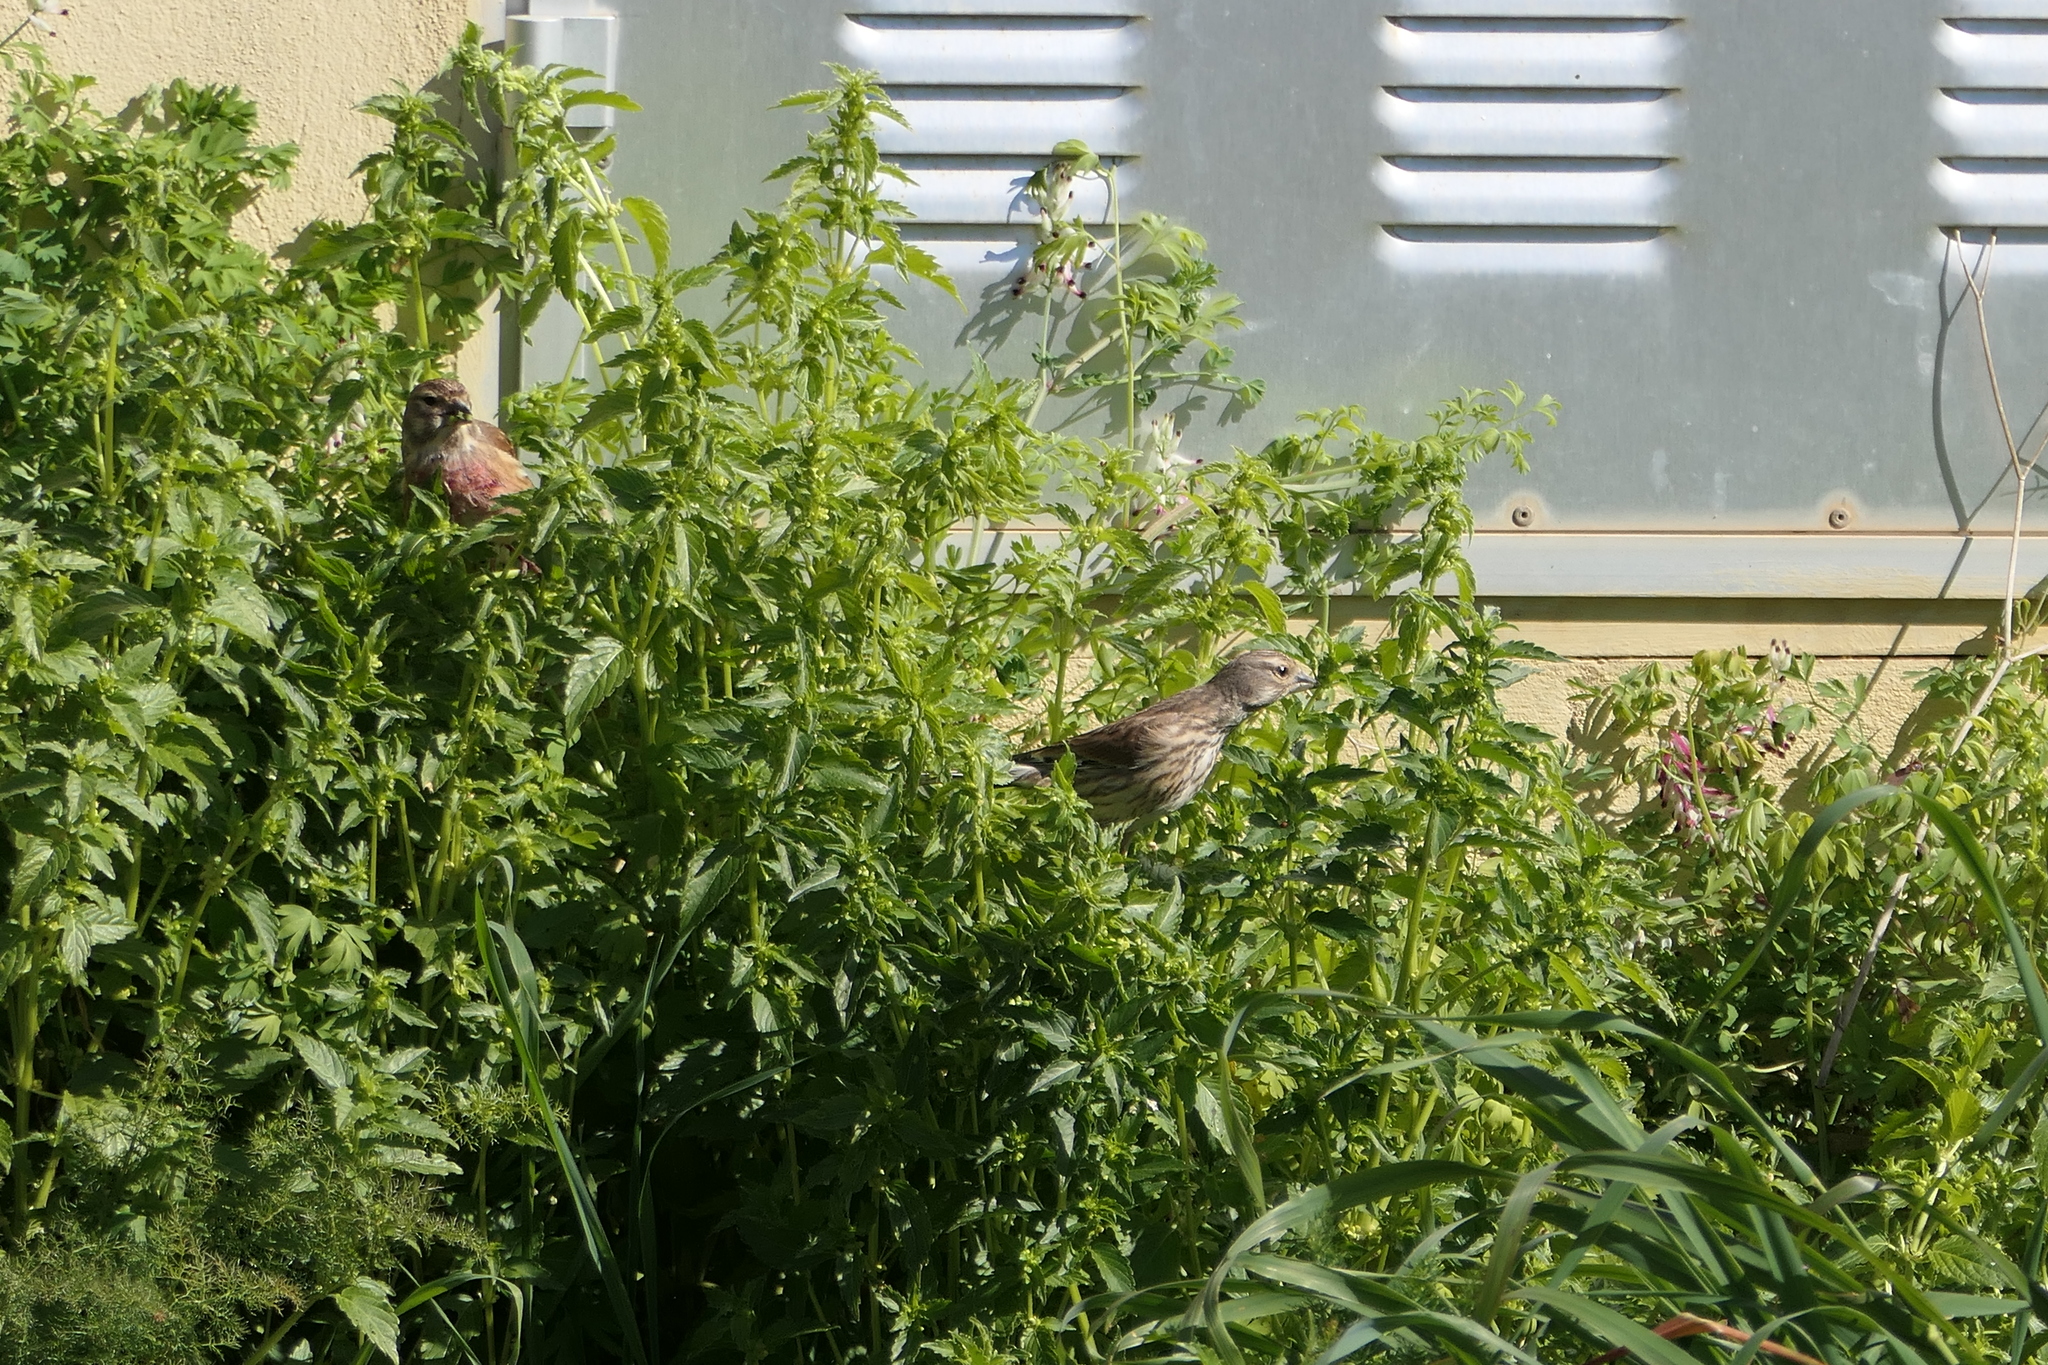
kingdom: Animalia
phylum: Chordata
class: Aves
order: Passeriformes
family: Fringillidae
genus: Linaria
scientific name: Linaria cannabina
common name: Common linnet
